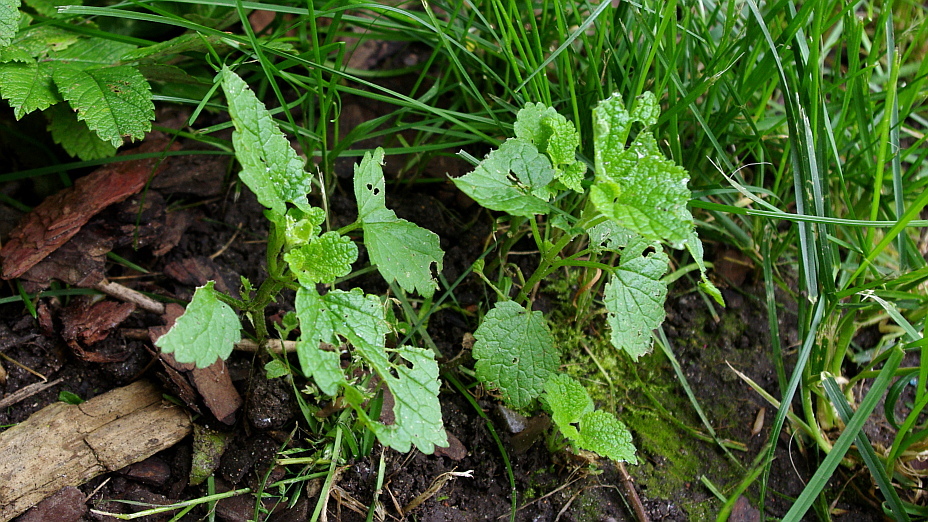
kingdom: Plantae
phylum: Tracheophyta
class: Magnoliopsida
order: Lamiales
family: Lamiaceae
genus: Lamium
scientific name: Lamium album
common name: White dead-nettle
